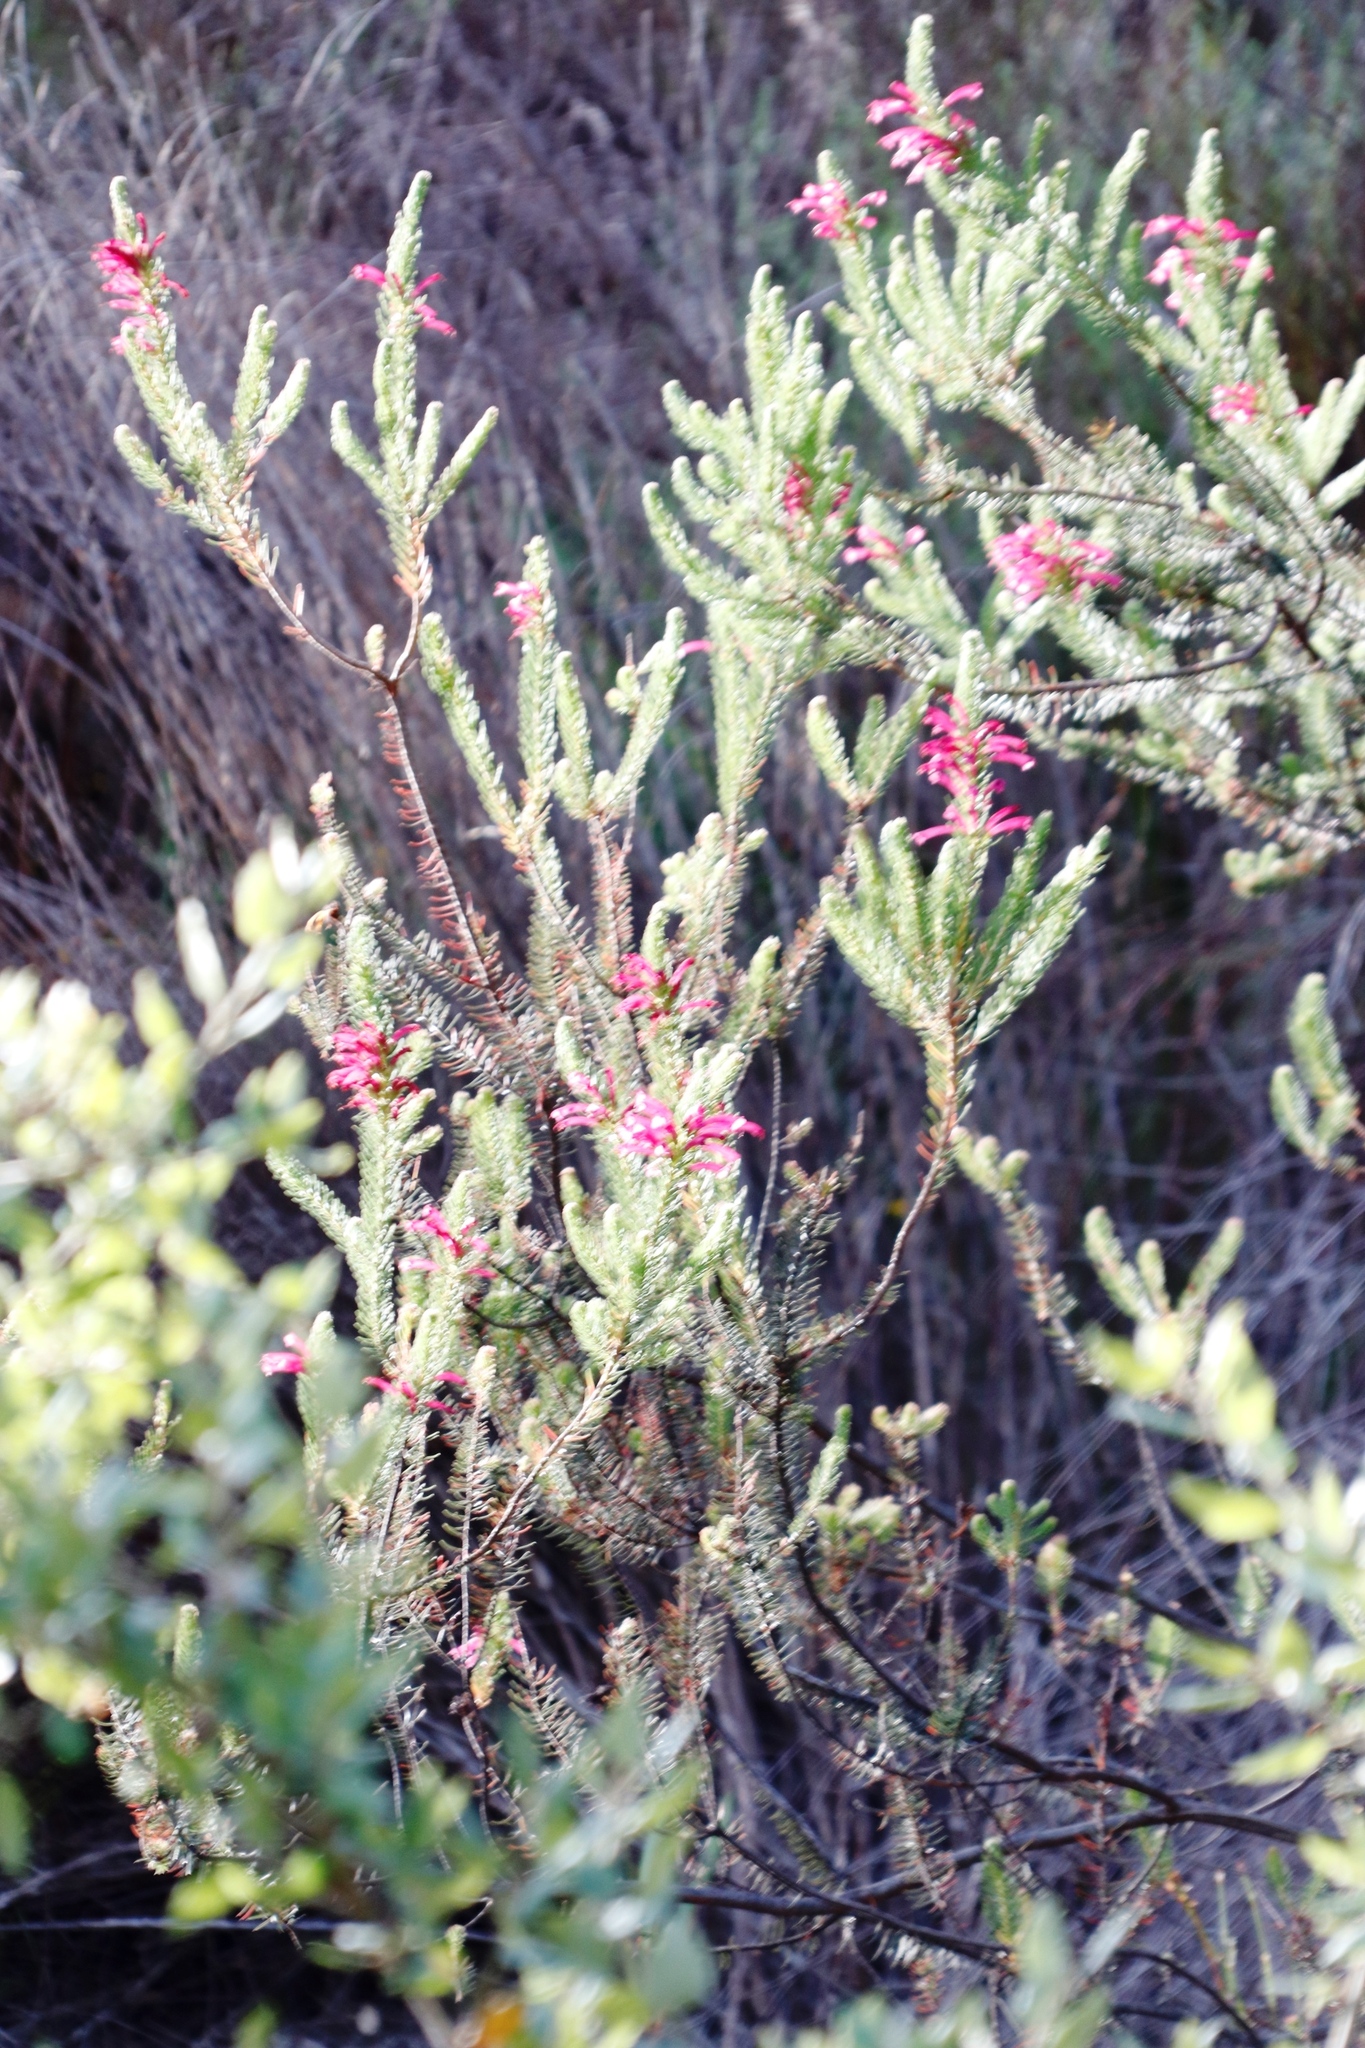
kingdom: Plantae
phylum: Tracheophyta
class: Magnoliopsida
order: Ericales
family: Ericaceae
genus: Erica
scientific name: Erica abietina
